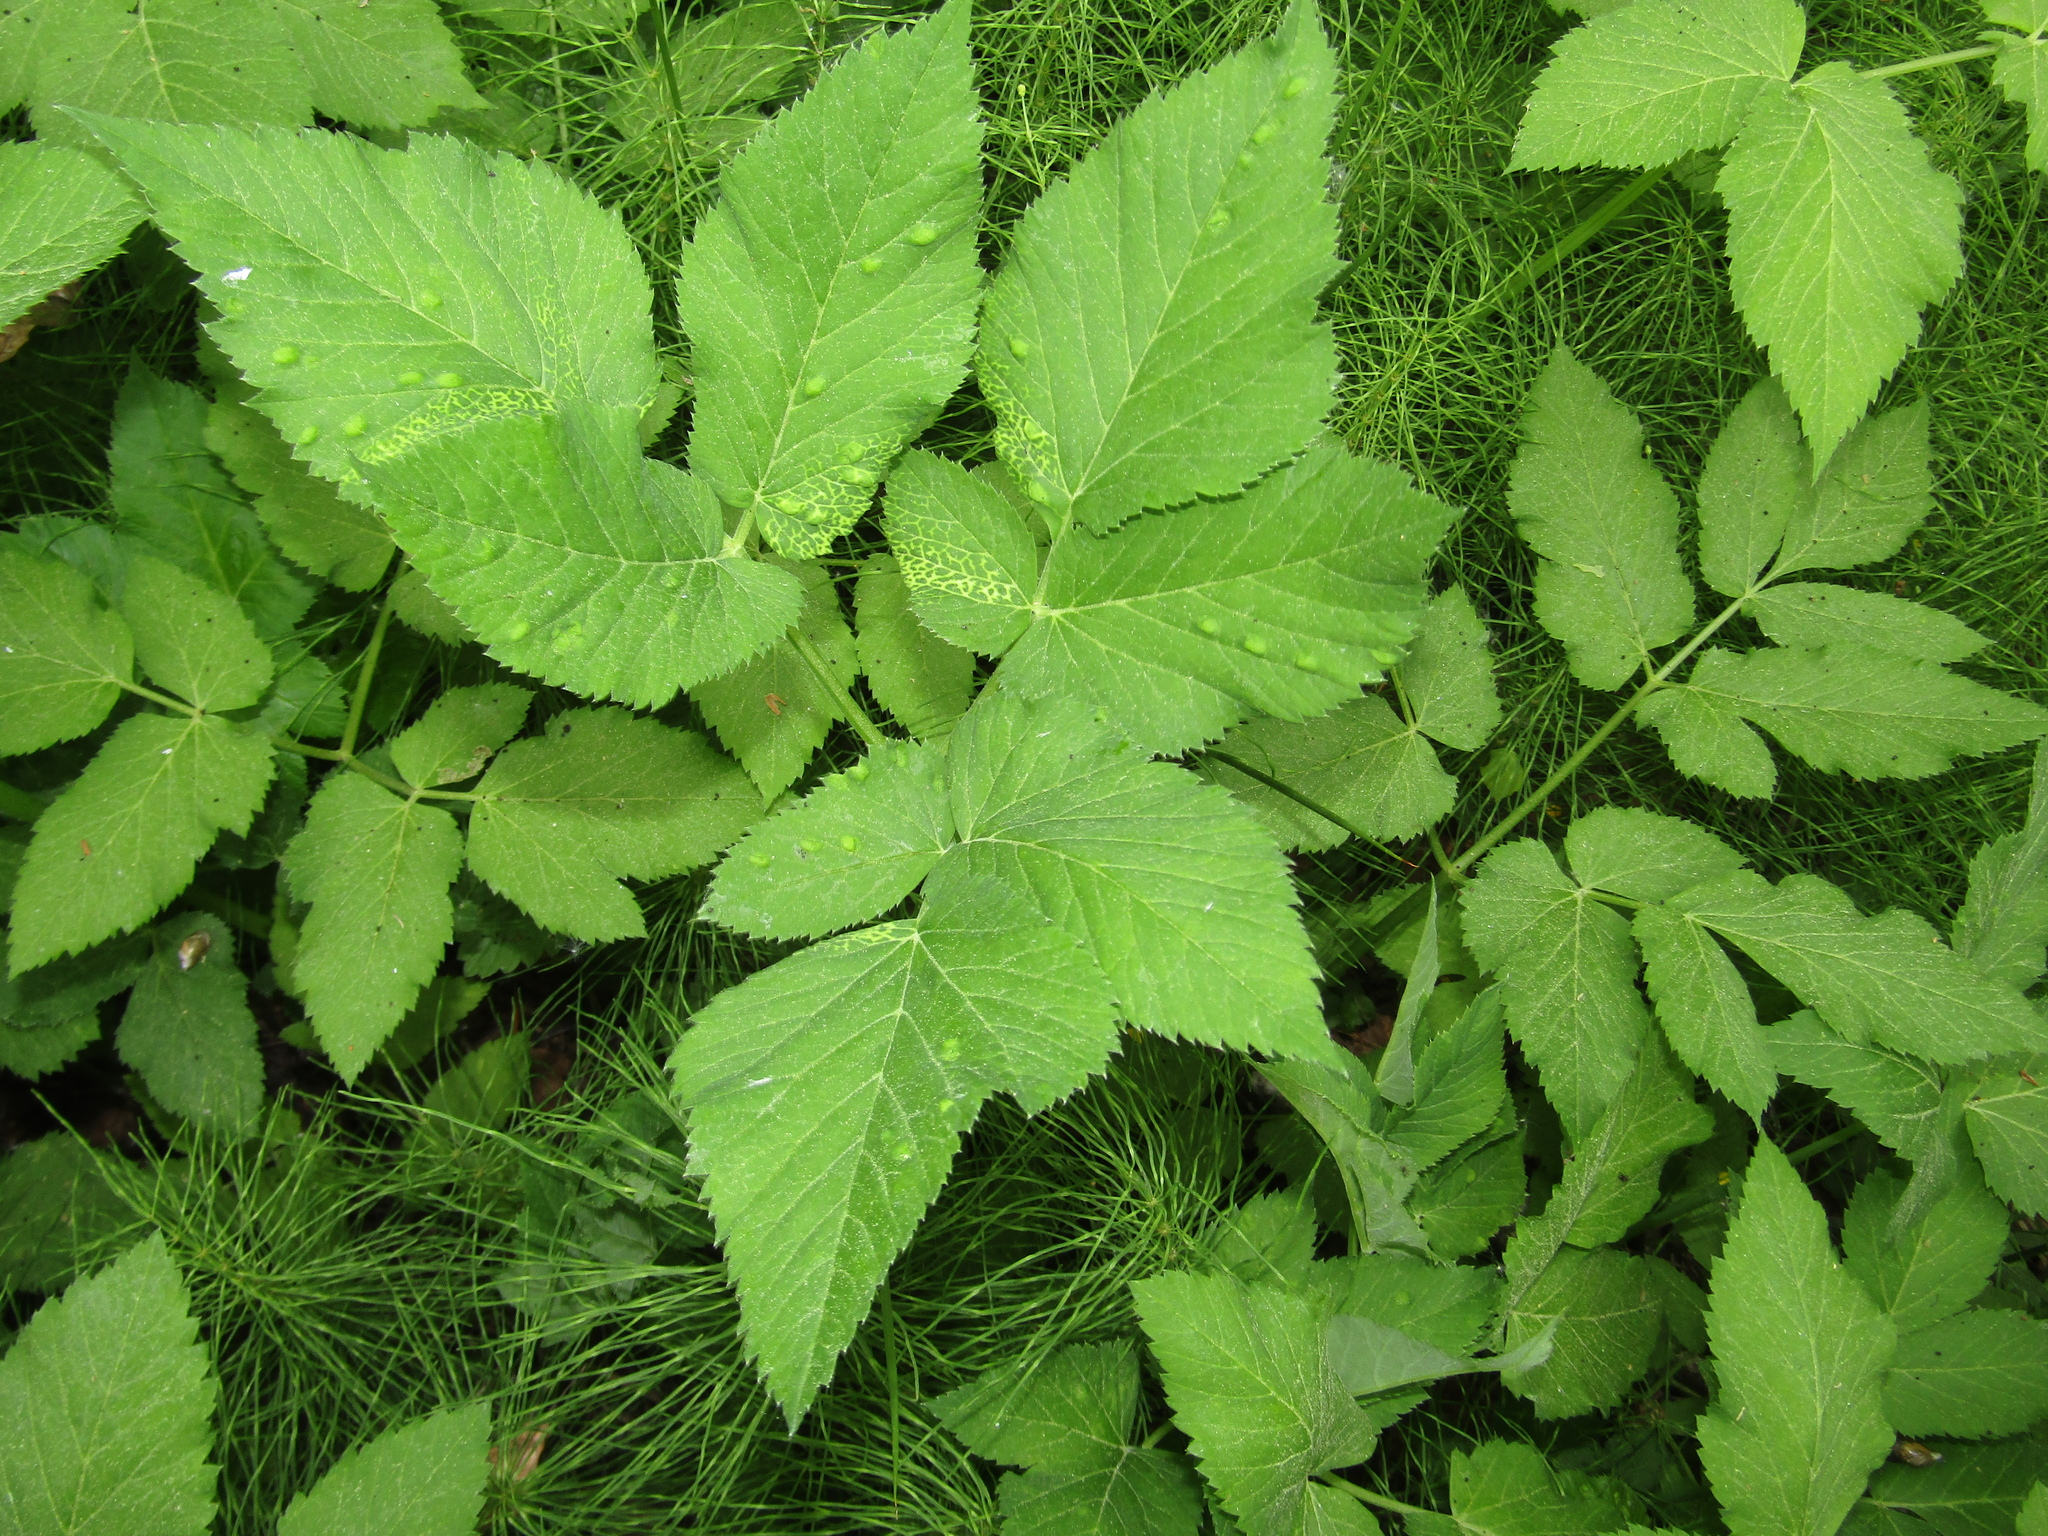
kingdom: Plantae
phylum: Tracheophyta
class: Magnoliopsida
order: Apiales
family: Apiaceae
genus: Aegopodium
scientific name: Aegopodium podagraria
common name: Ground-elder
